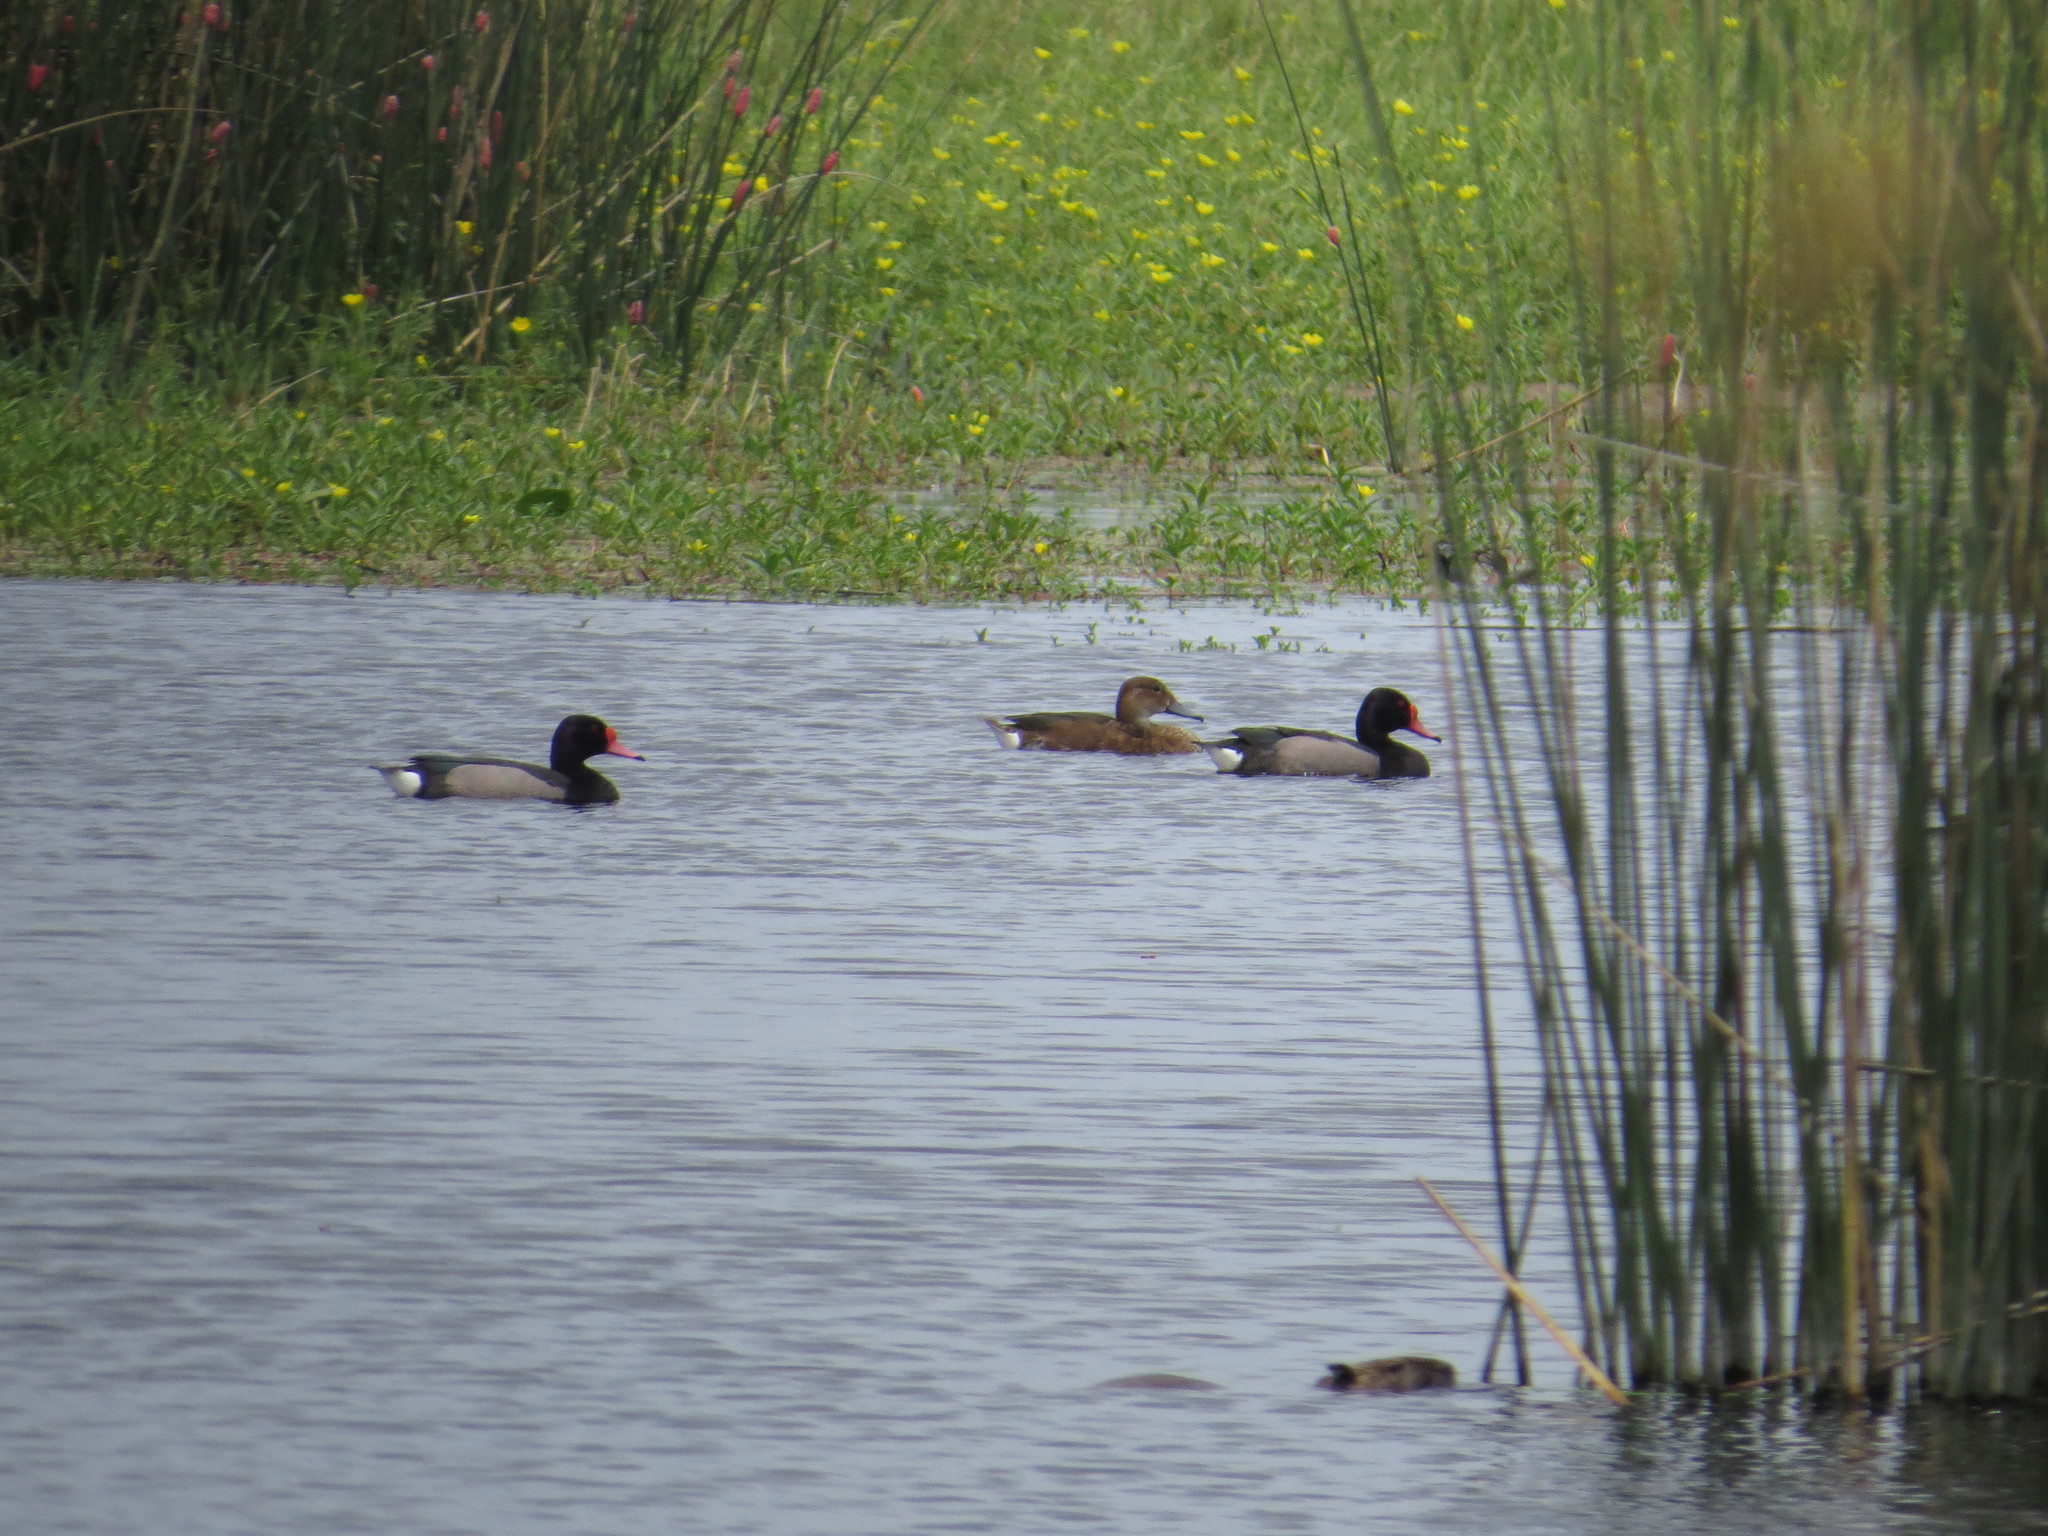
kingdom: Animalia
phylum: Chordata
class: Aves
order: Anseriformes
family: Anatidae
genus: Netta
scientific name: Netta peposaca
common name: Rosy-billed pochard
